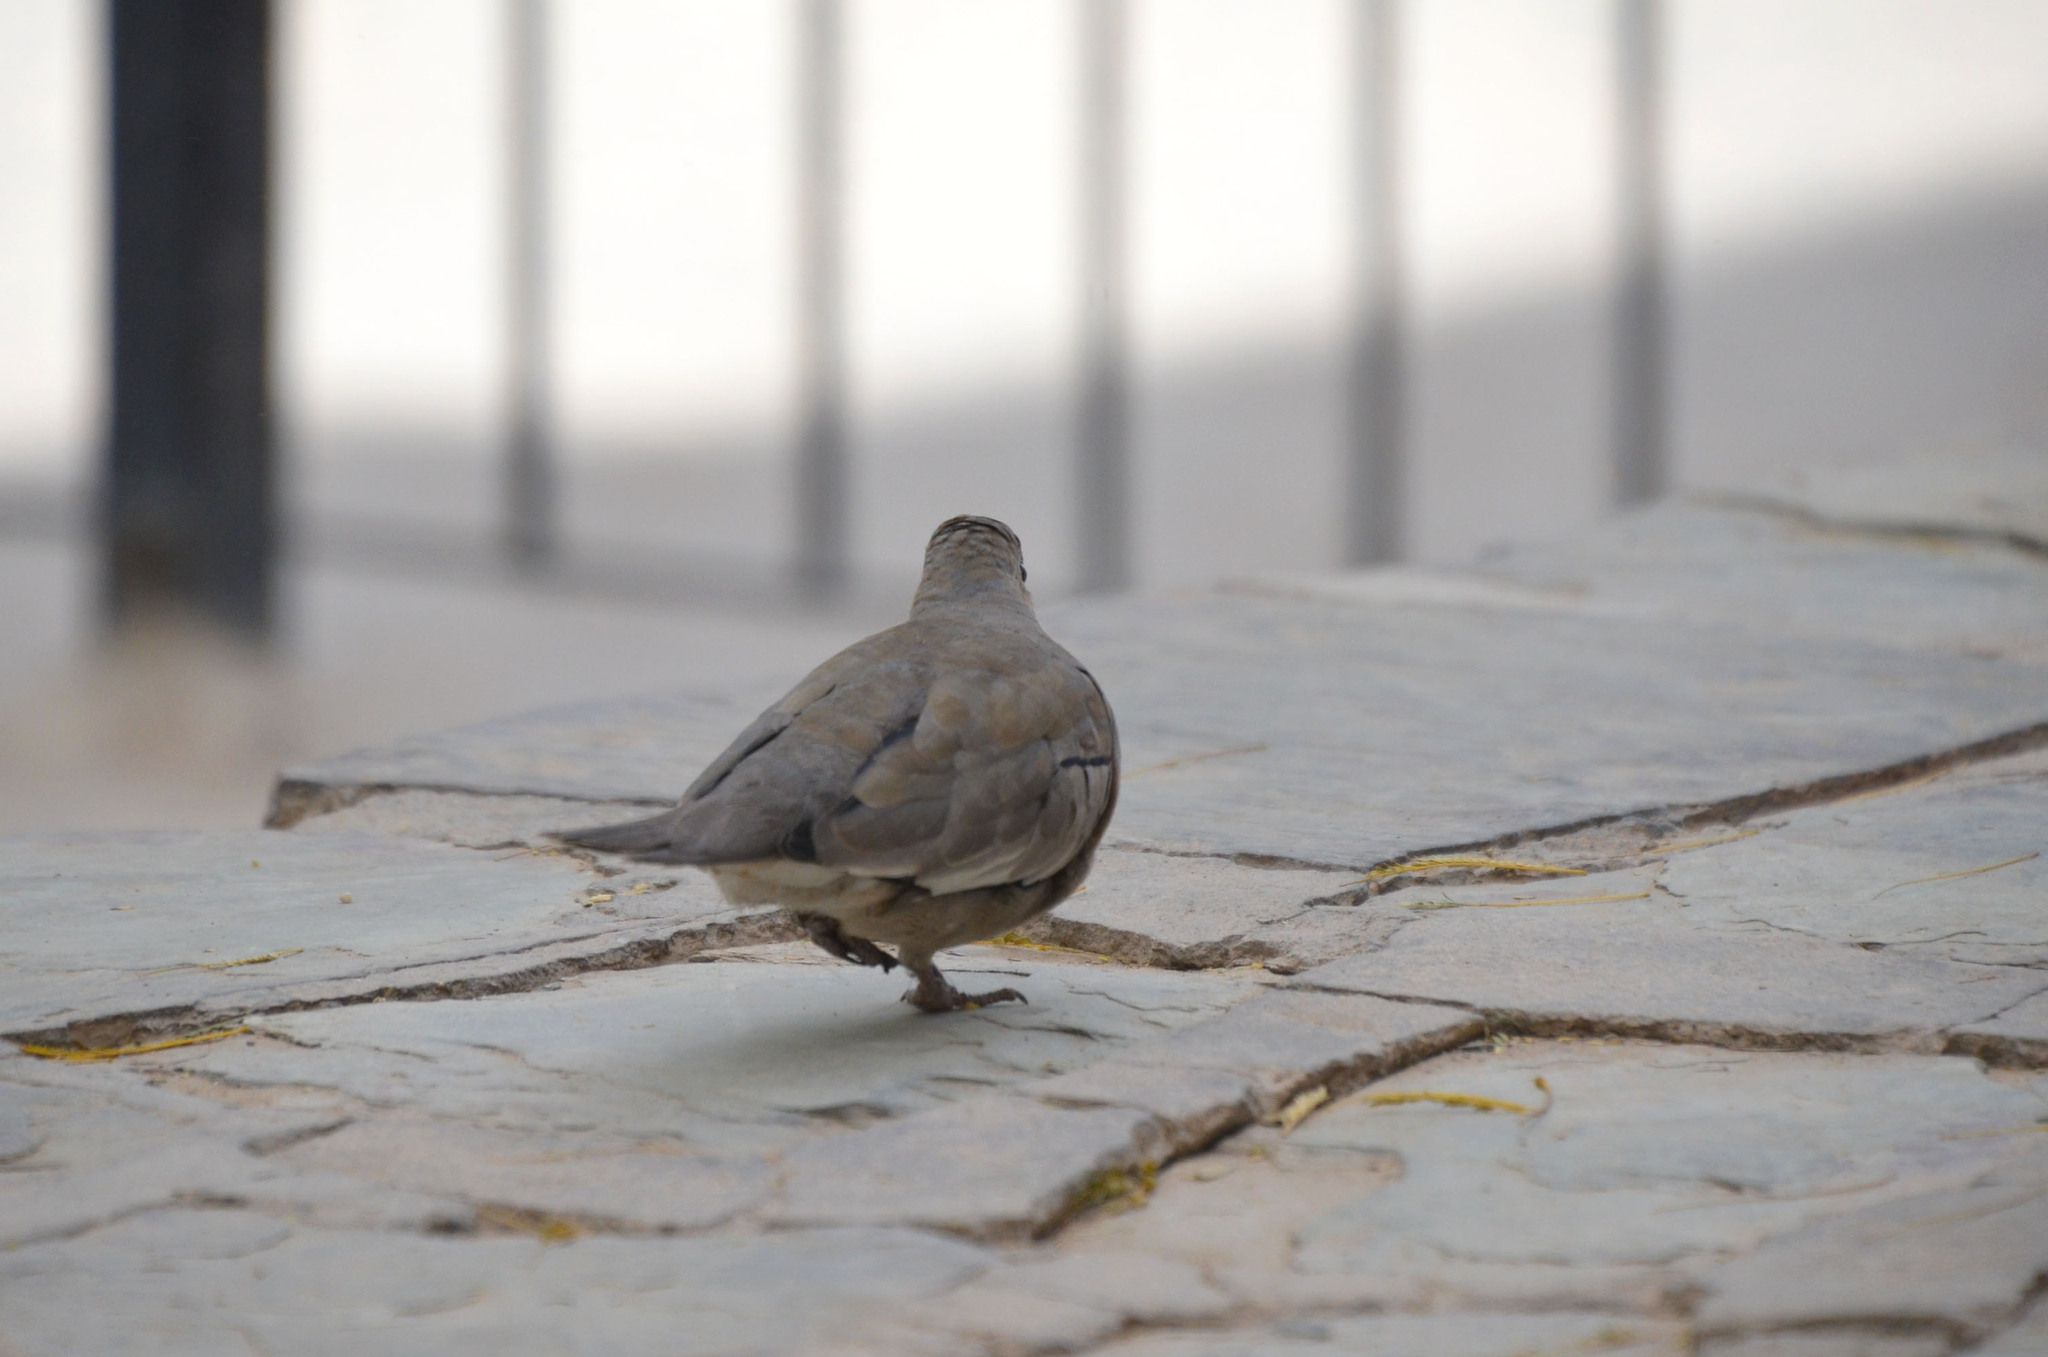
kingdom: Animalia
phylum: Chordata
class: Aves
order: Columbiformes
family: Columbidae
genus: Columbina
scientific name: Columbina picui
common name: Picui ground dove
